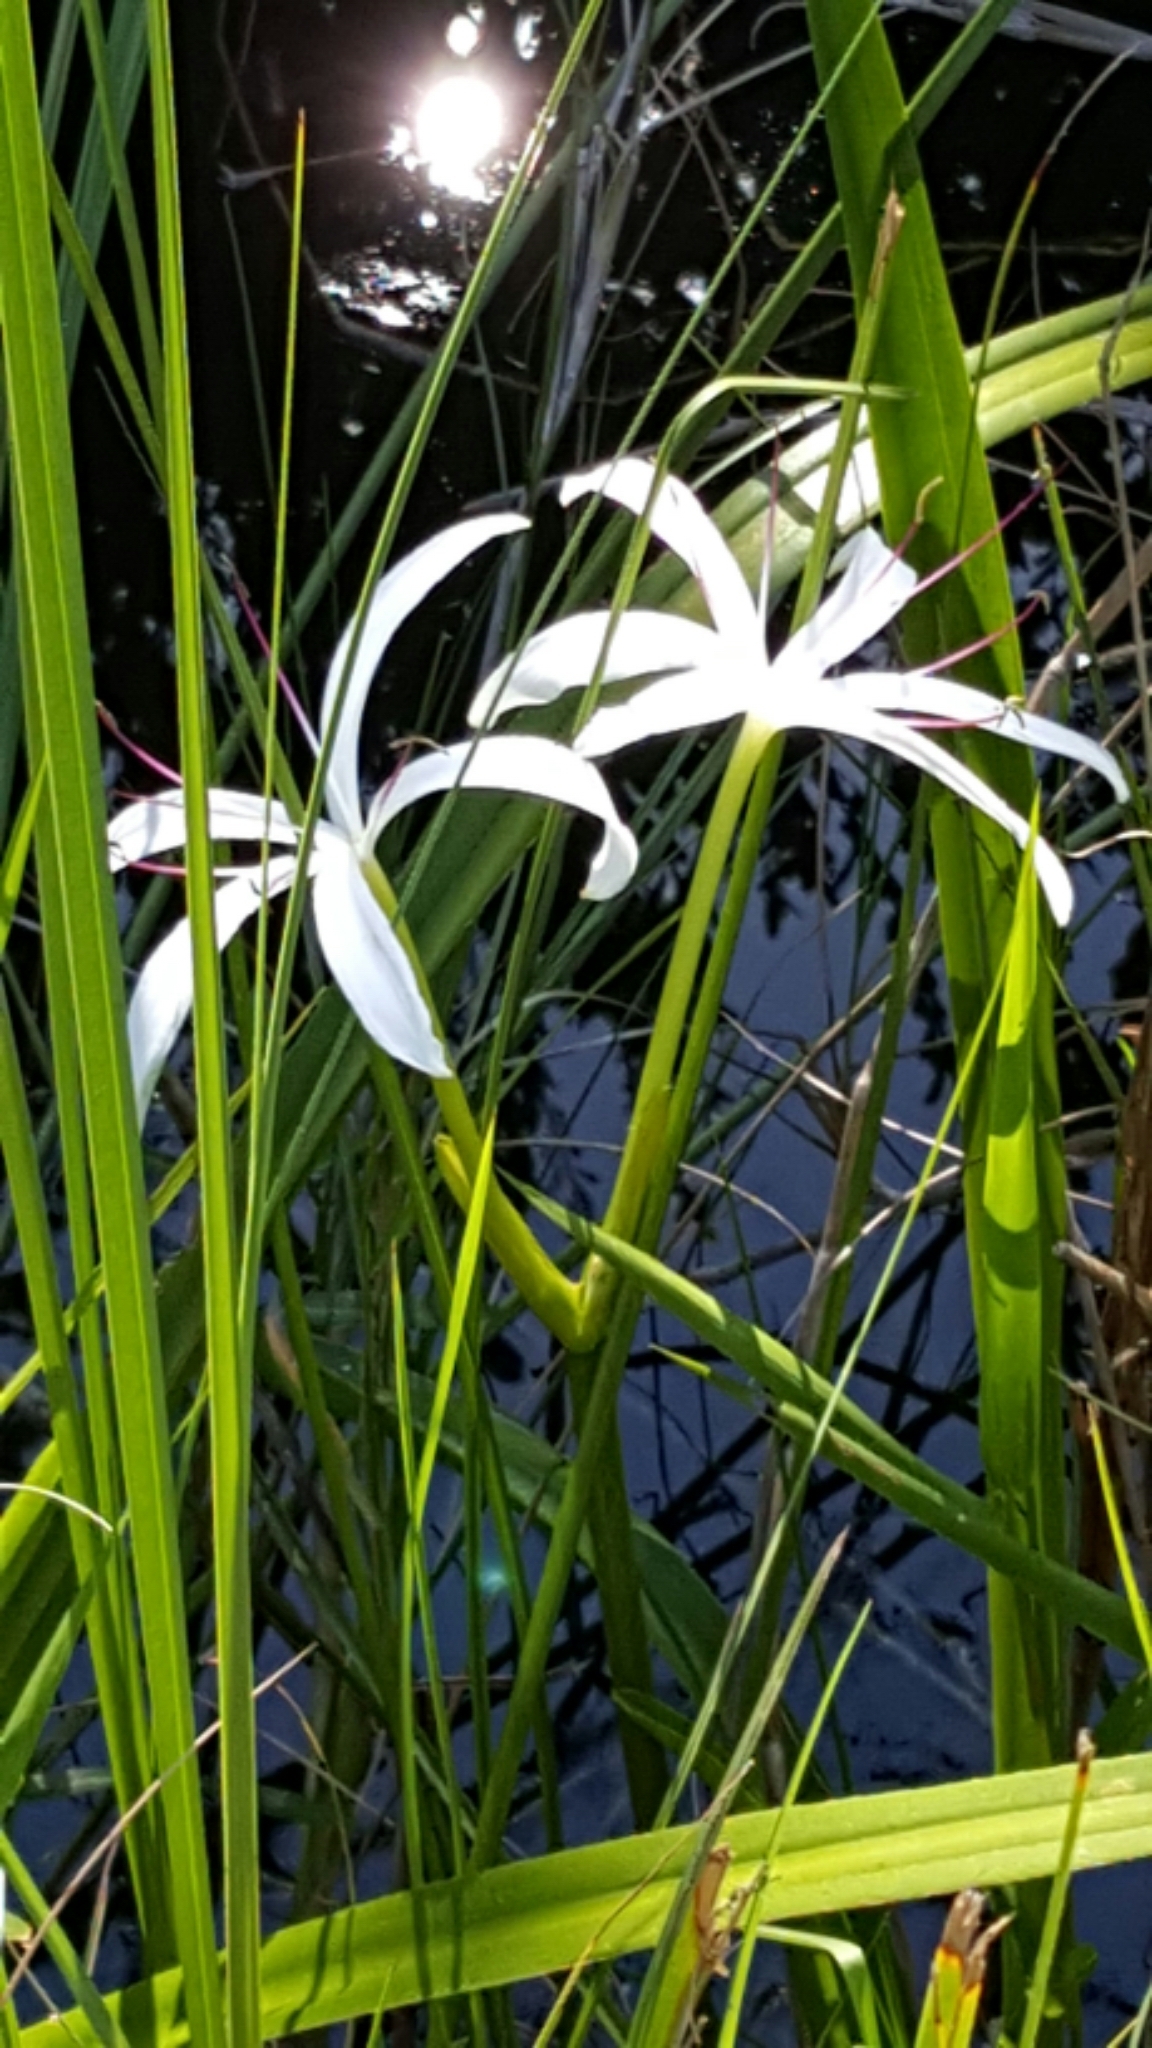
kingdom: Plantae
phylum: Tracheophyta
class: Liliopsida
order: Asparagales
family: Amaryllidaceae
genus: Crinum
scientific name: Crinum americanum
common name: Florida swamp-lily
